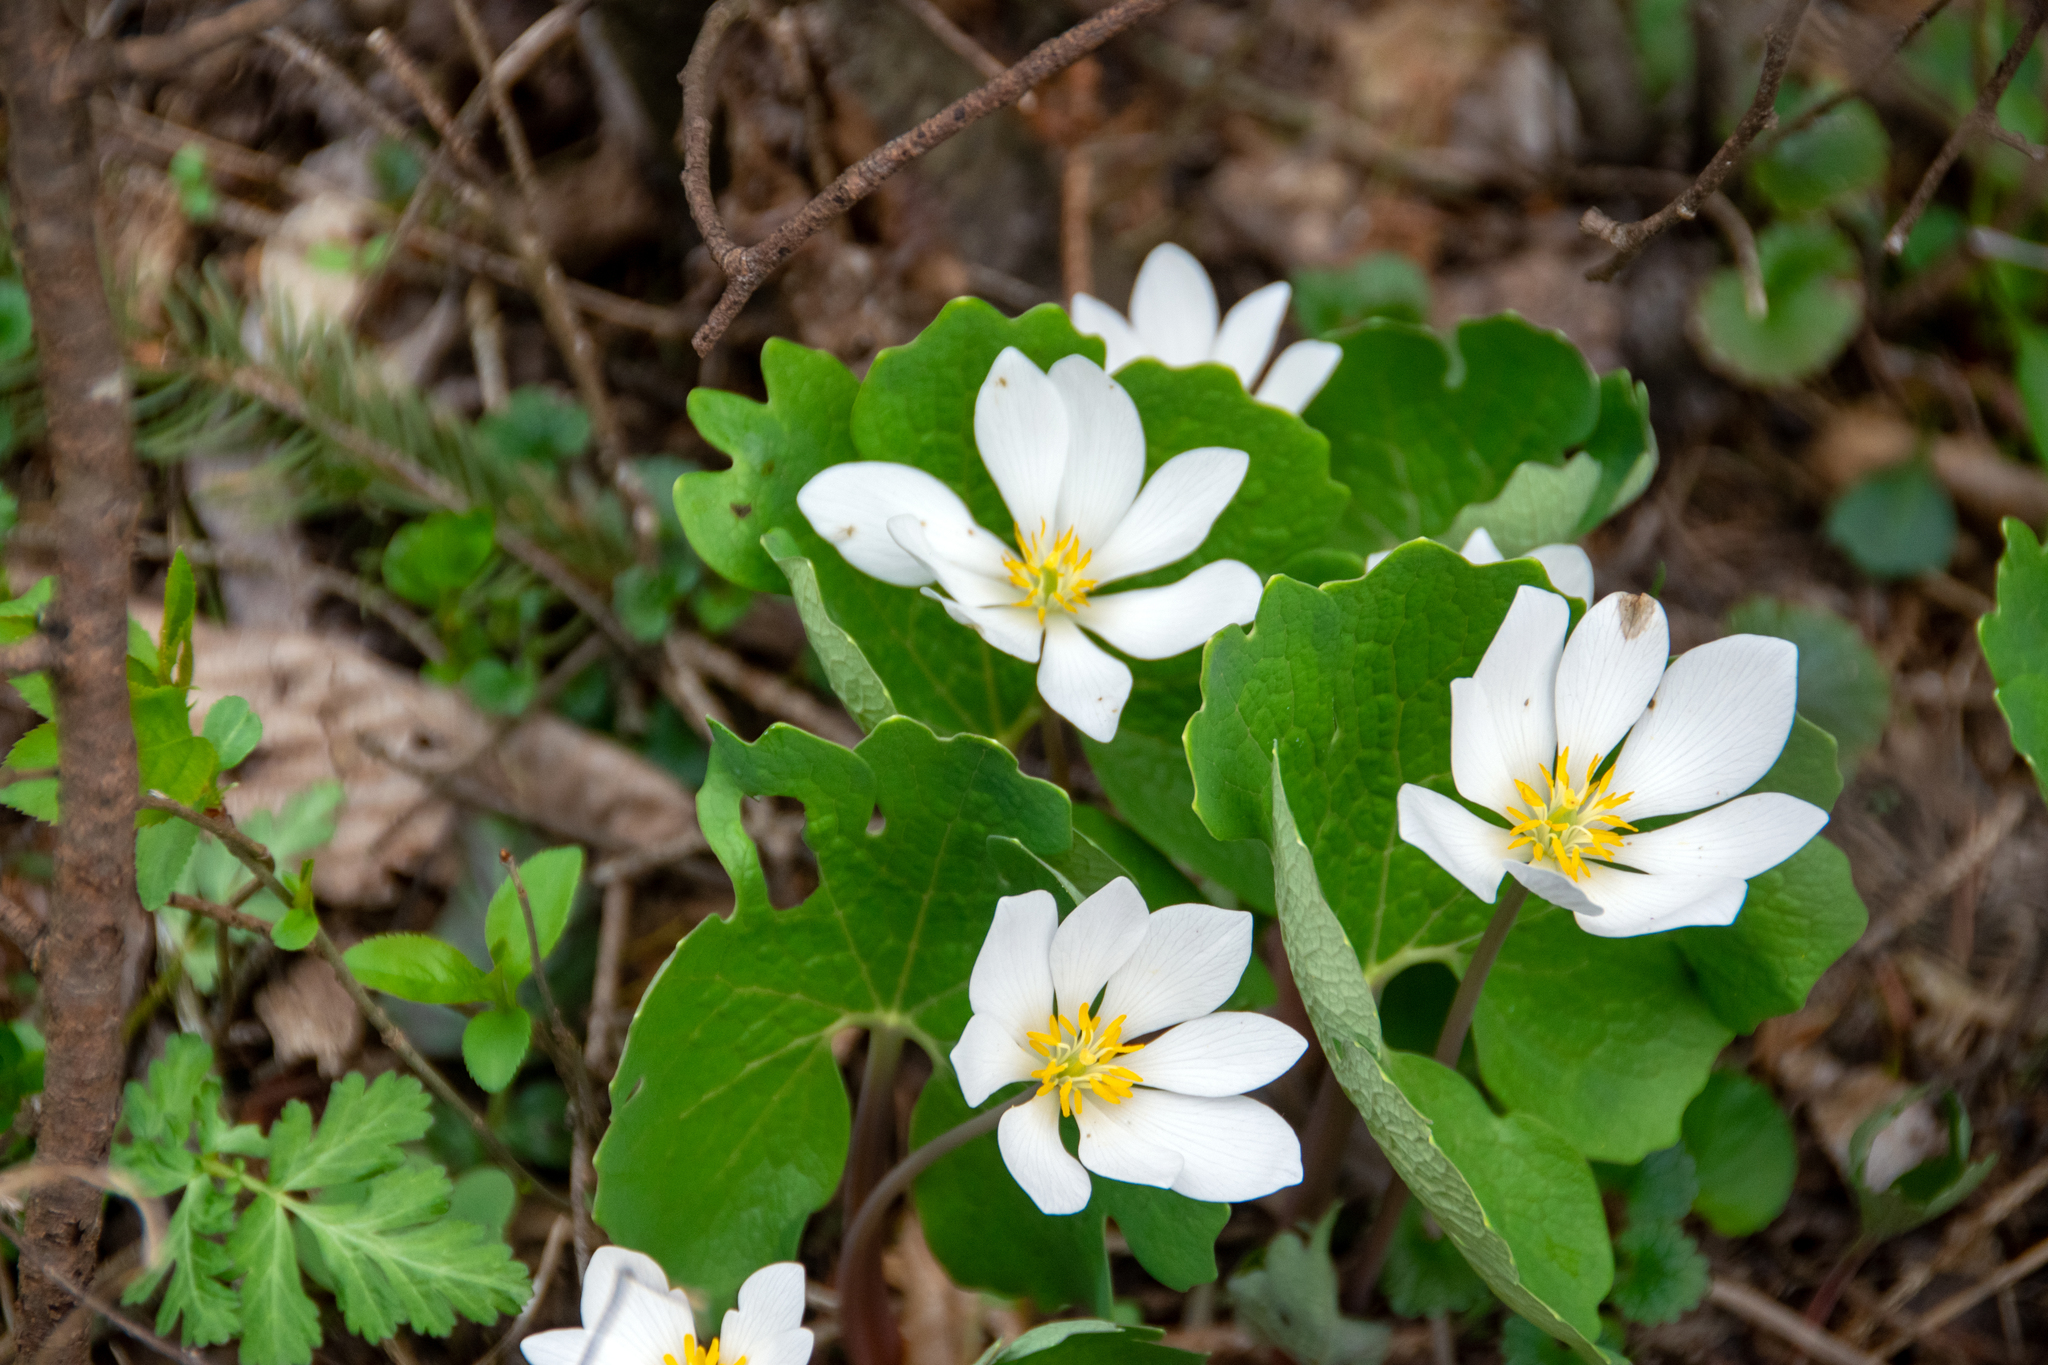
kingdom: Plantae
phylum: Tracheophyta
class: Magnoliopsida
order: Ranunculales
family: Papaveraceae
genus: Sanguinaria
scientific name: Sanguinaria canadensis
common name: Bloodroot
